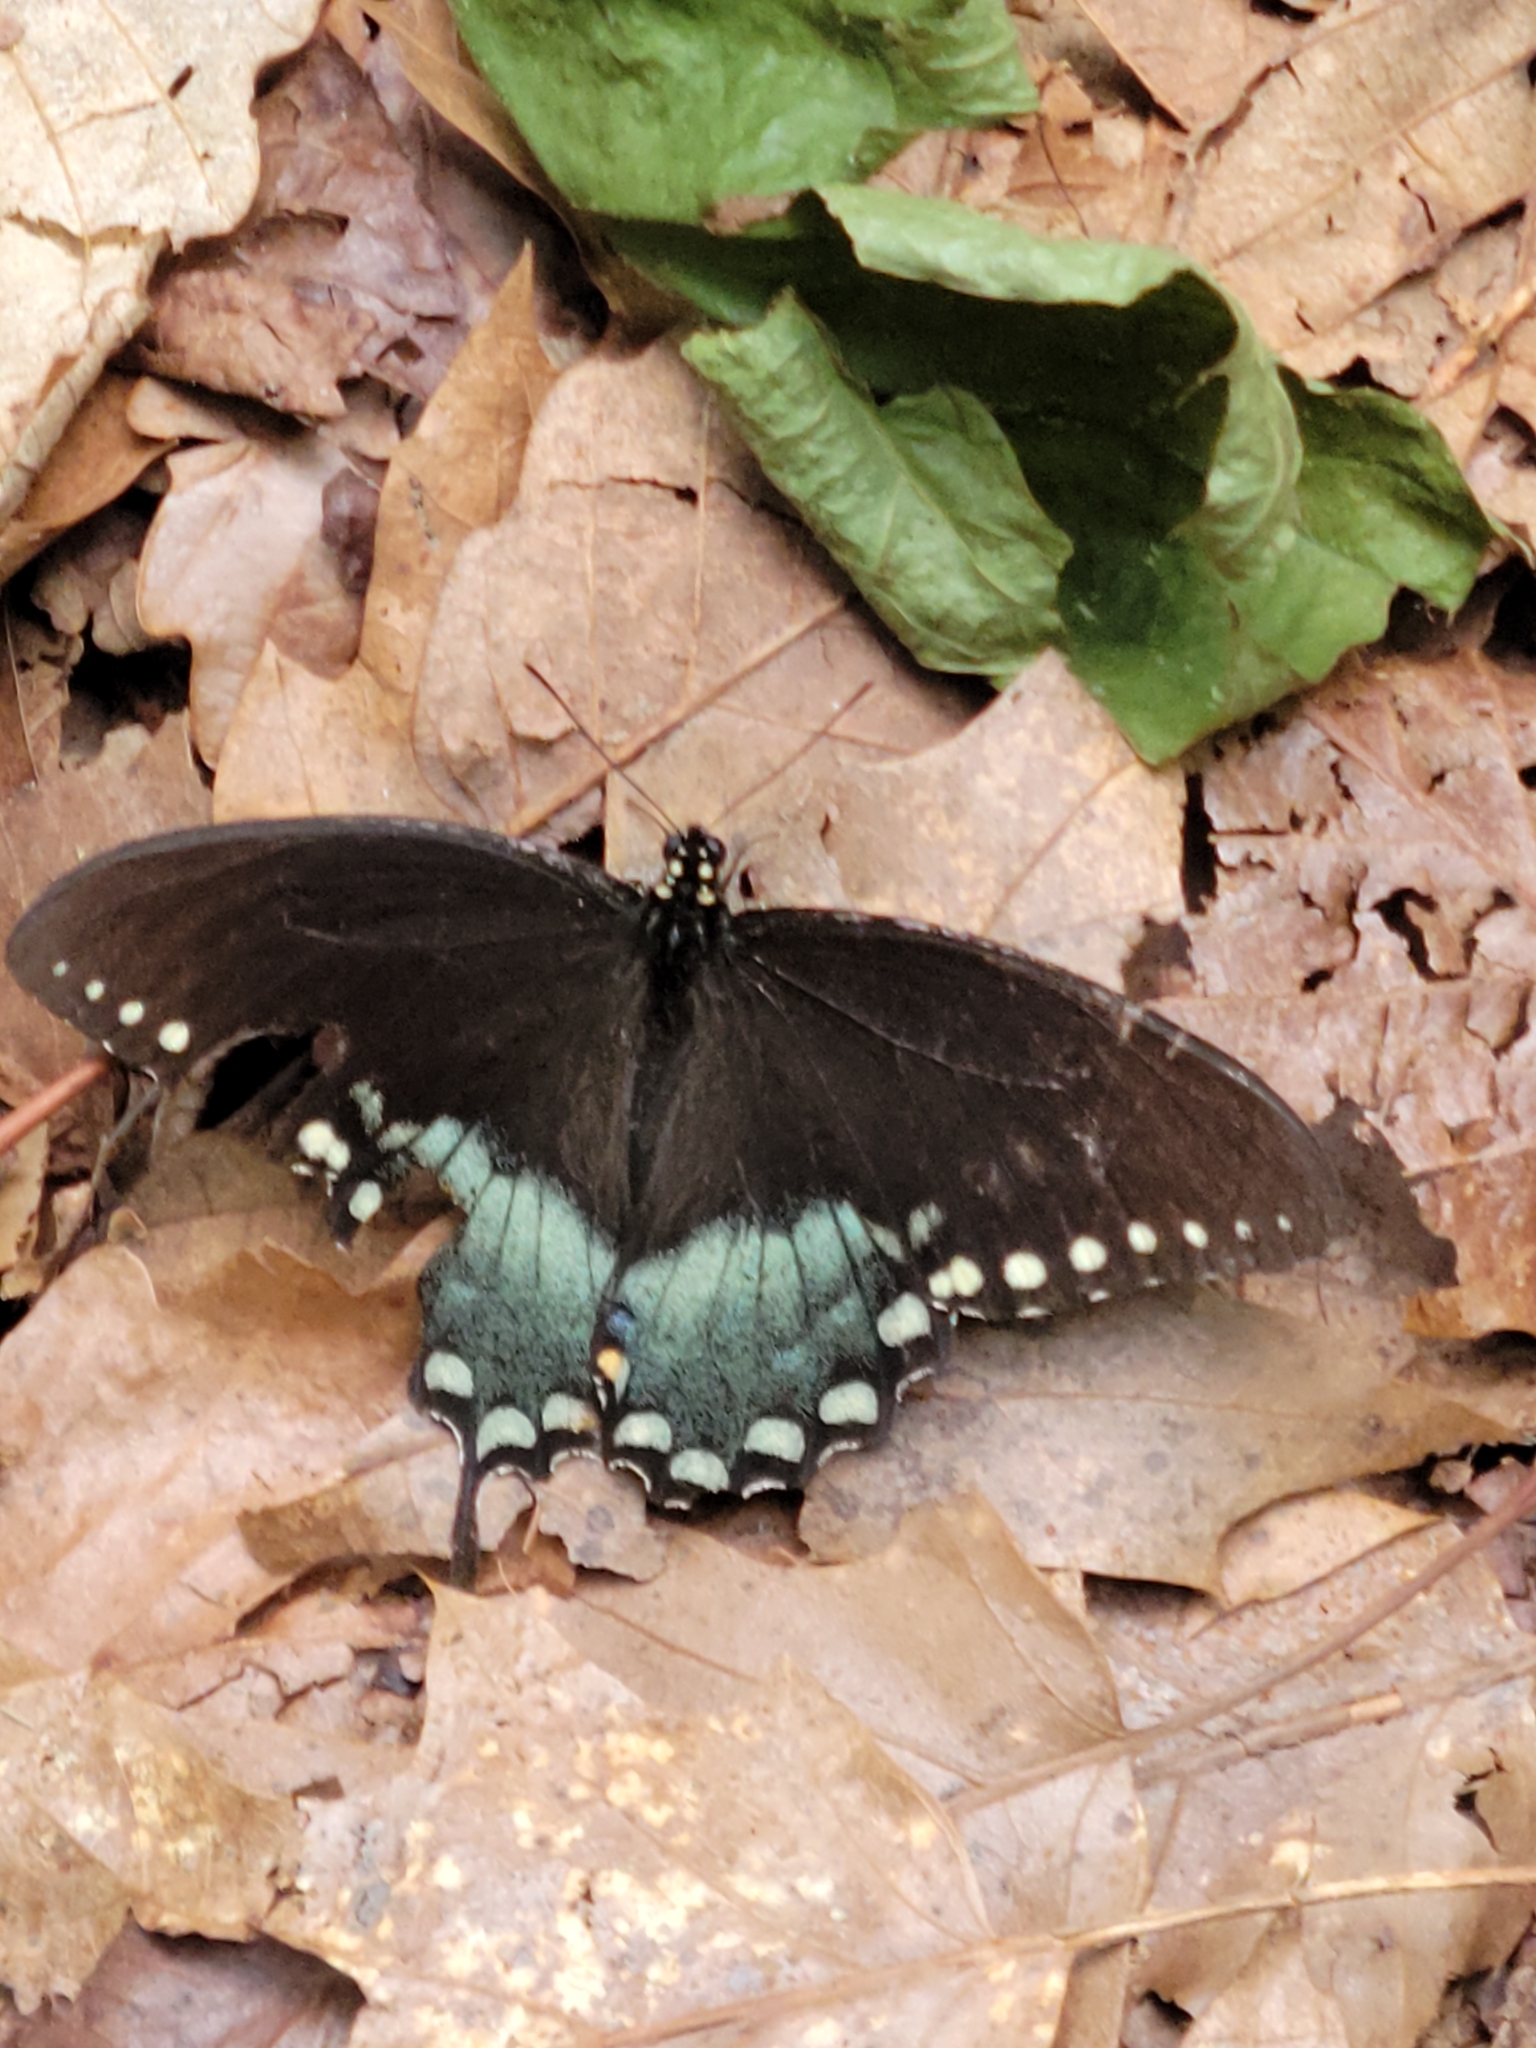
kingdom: Animalia
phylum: Arthropoda
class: Insecta
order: Lepidoptera
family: Papilionidae
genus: Papilio
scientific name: Papilio troilus
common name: Spicebush swallowtail
